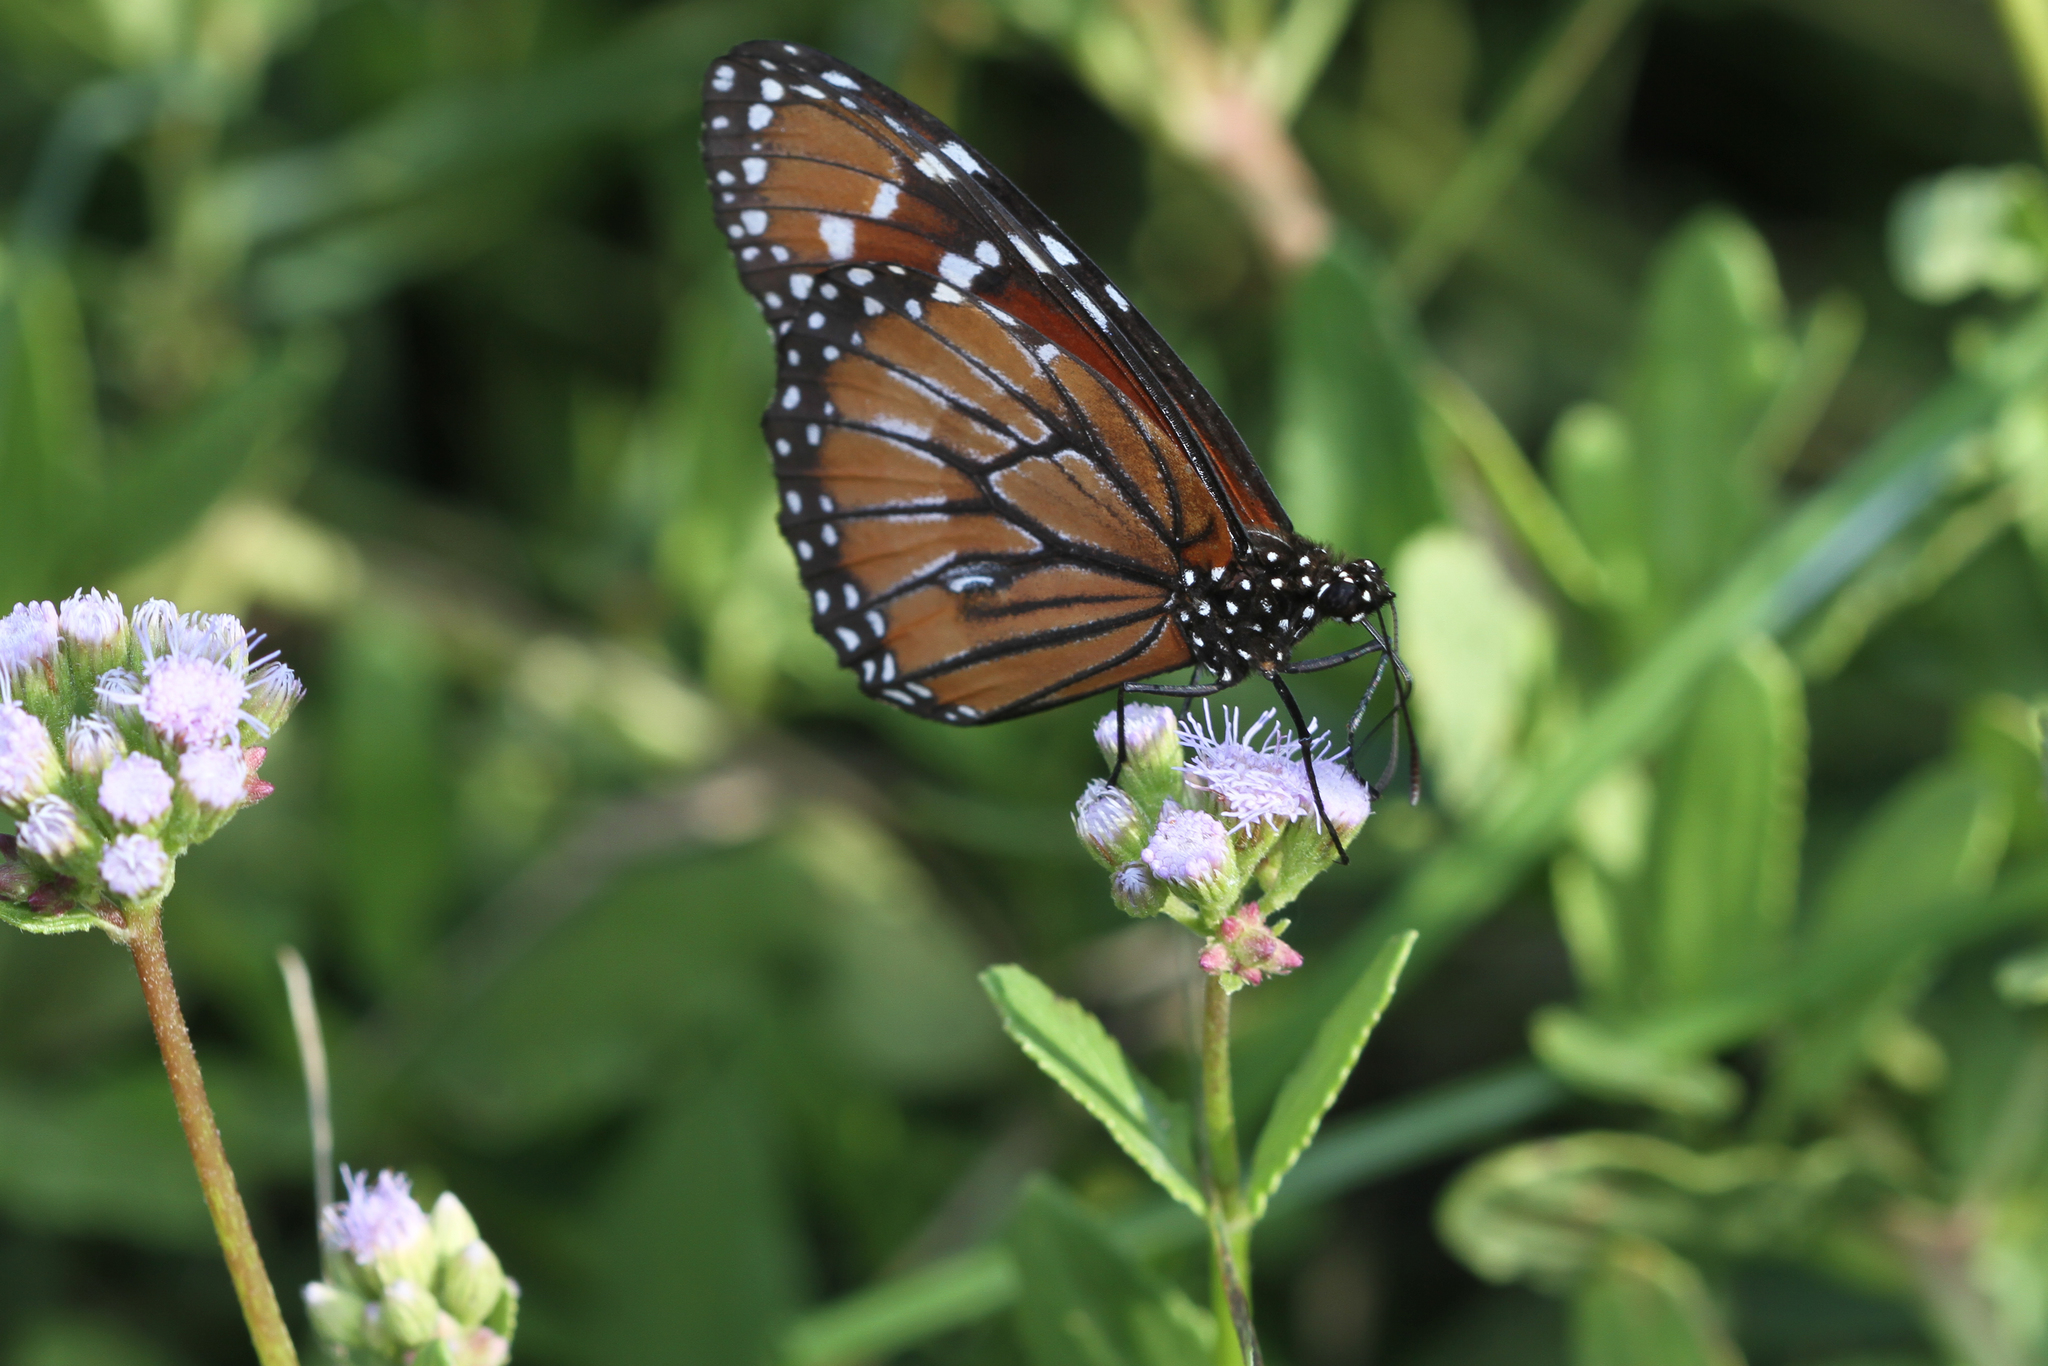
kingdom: Animalia
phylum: Arthropoda
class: Insecta
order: Lepidoptera
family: Nymphalidae
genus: Danaus
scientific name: Danaus eresimus
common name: Soldier
